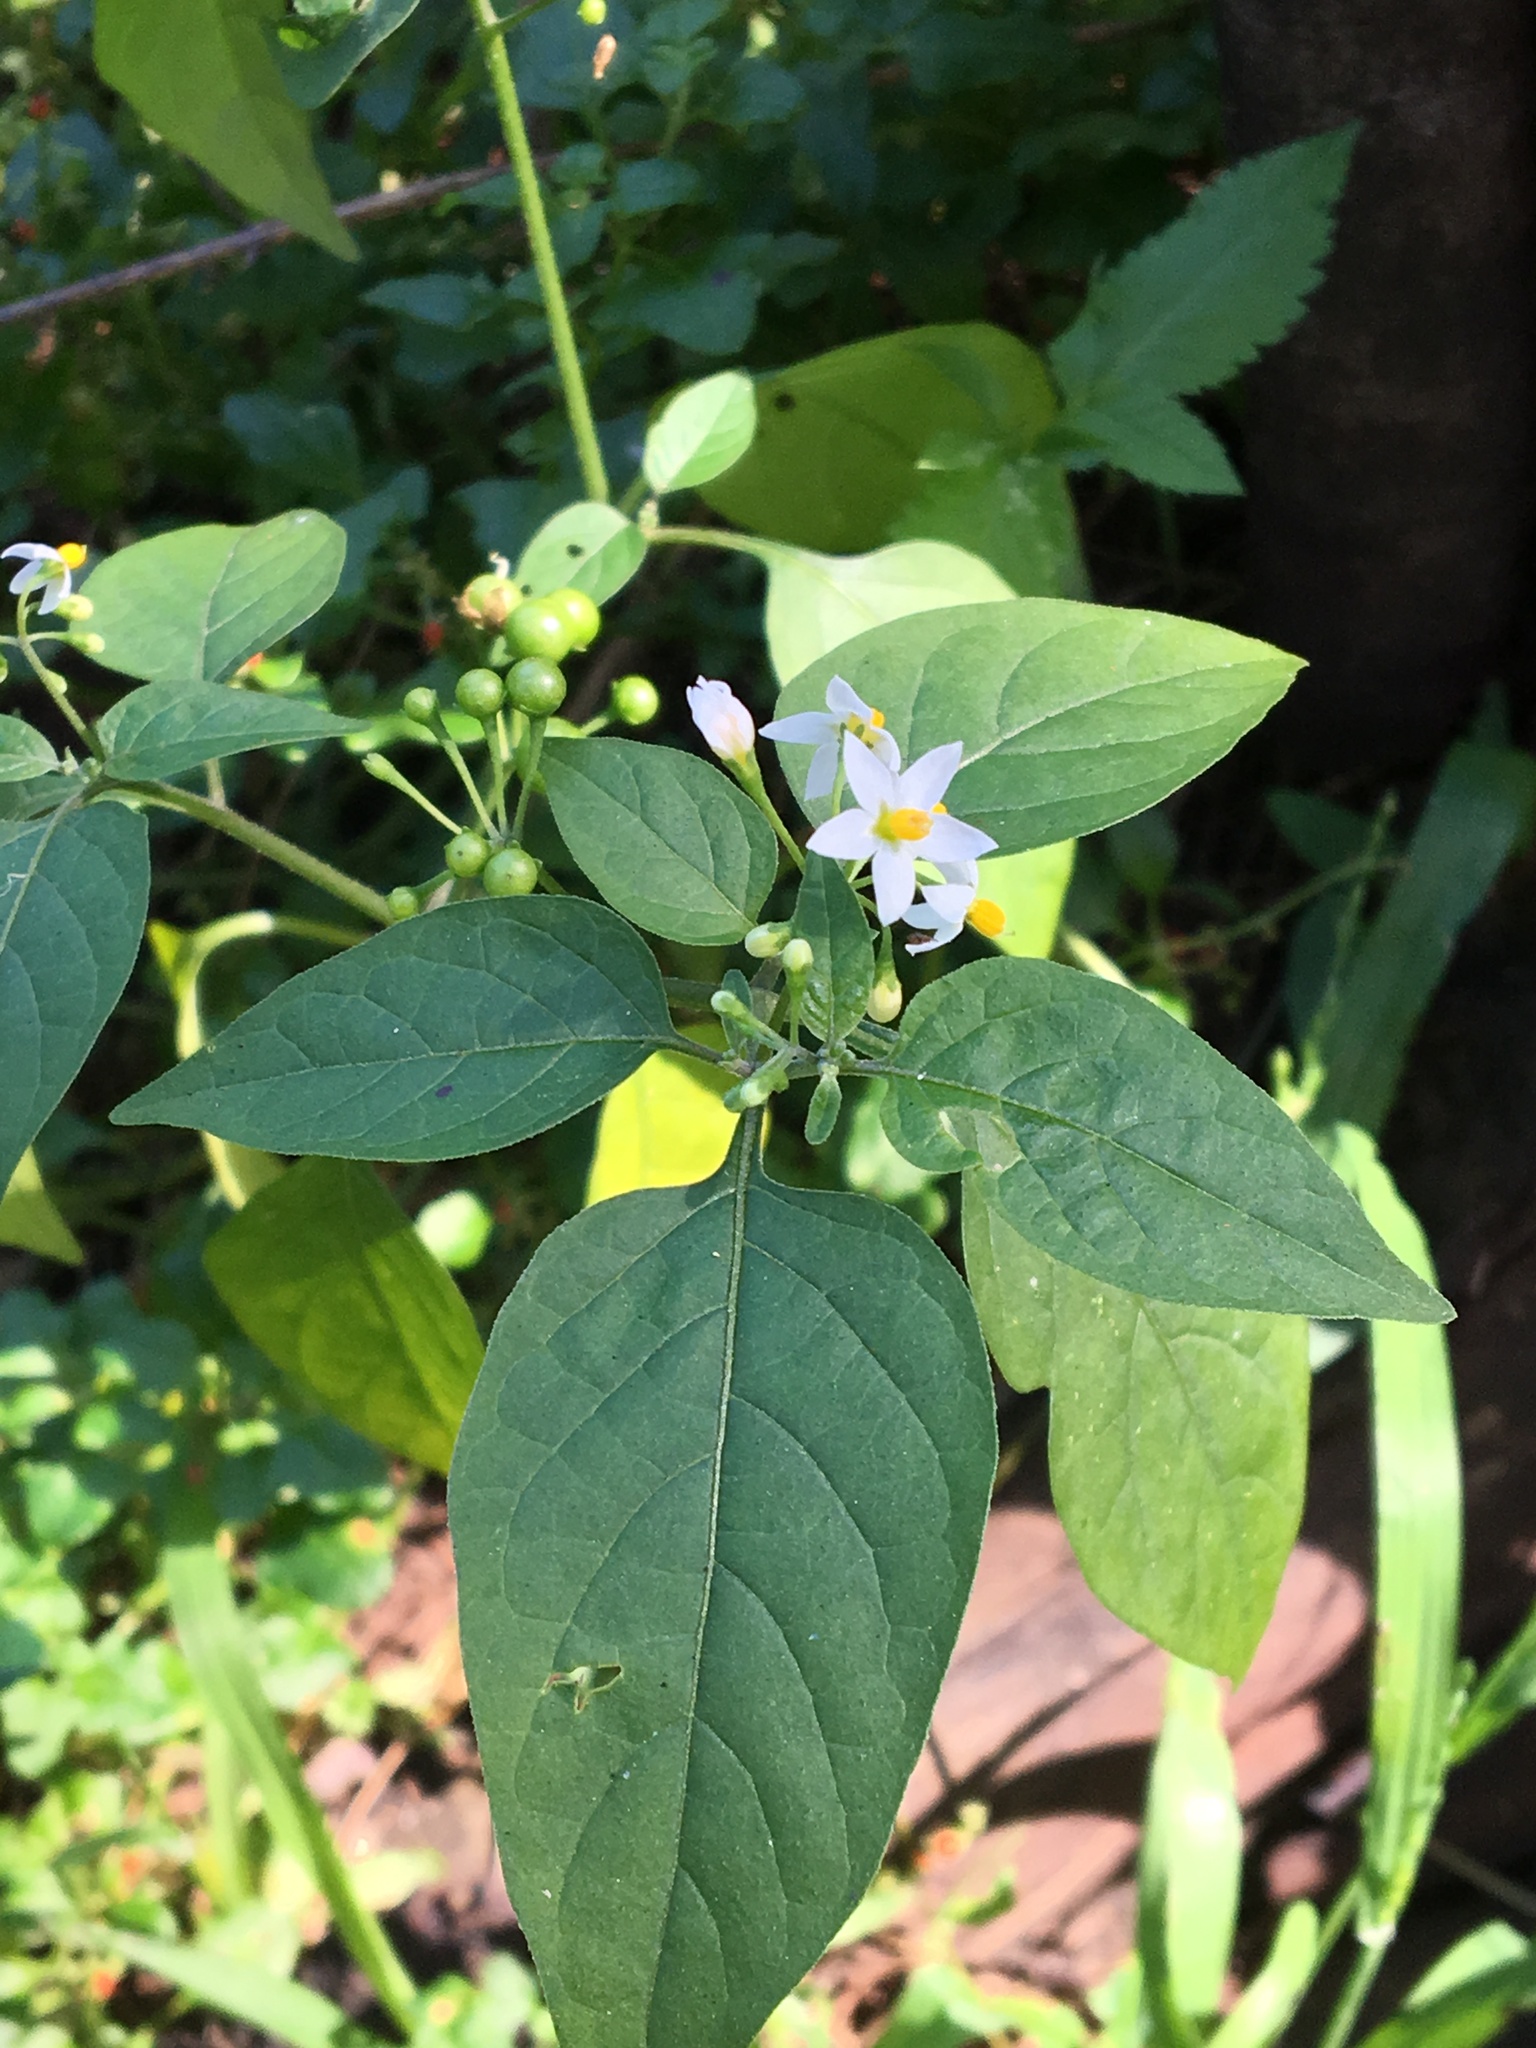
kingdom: Plantae
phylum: Tracheophyta
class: Magnoliopsida
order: Solanales
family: Solanaceae
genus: Solanum
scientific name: Solanum americanum
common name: American black nightshade
